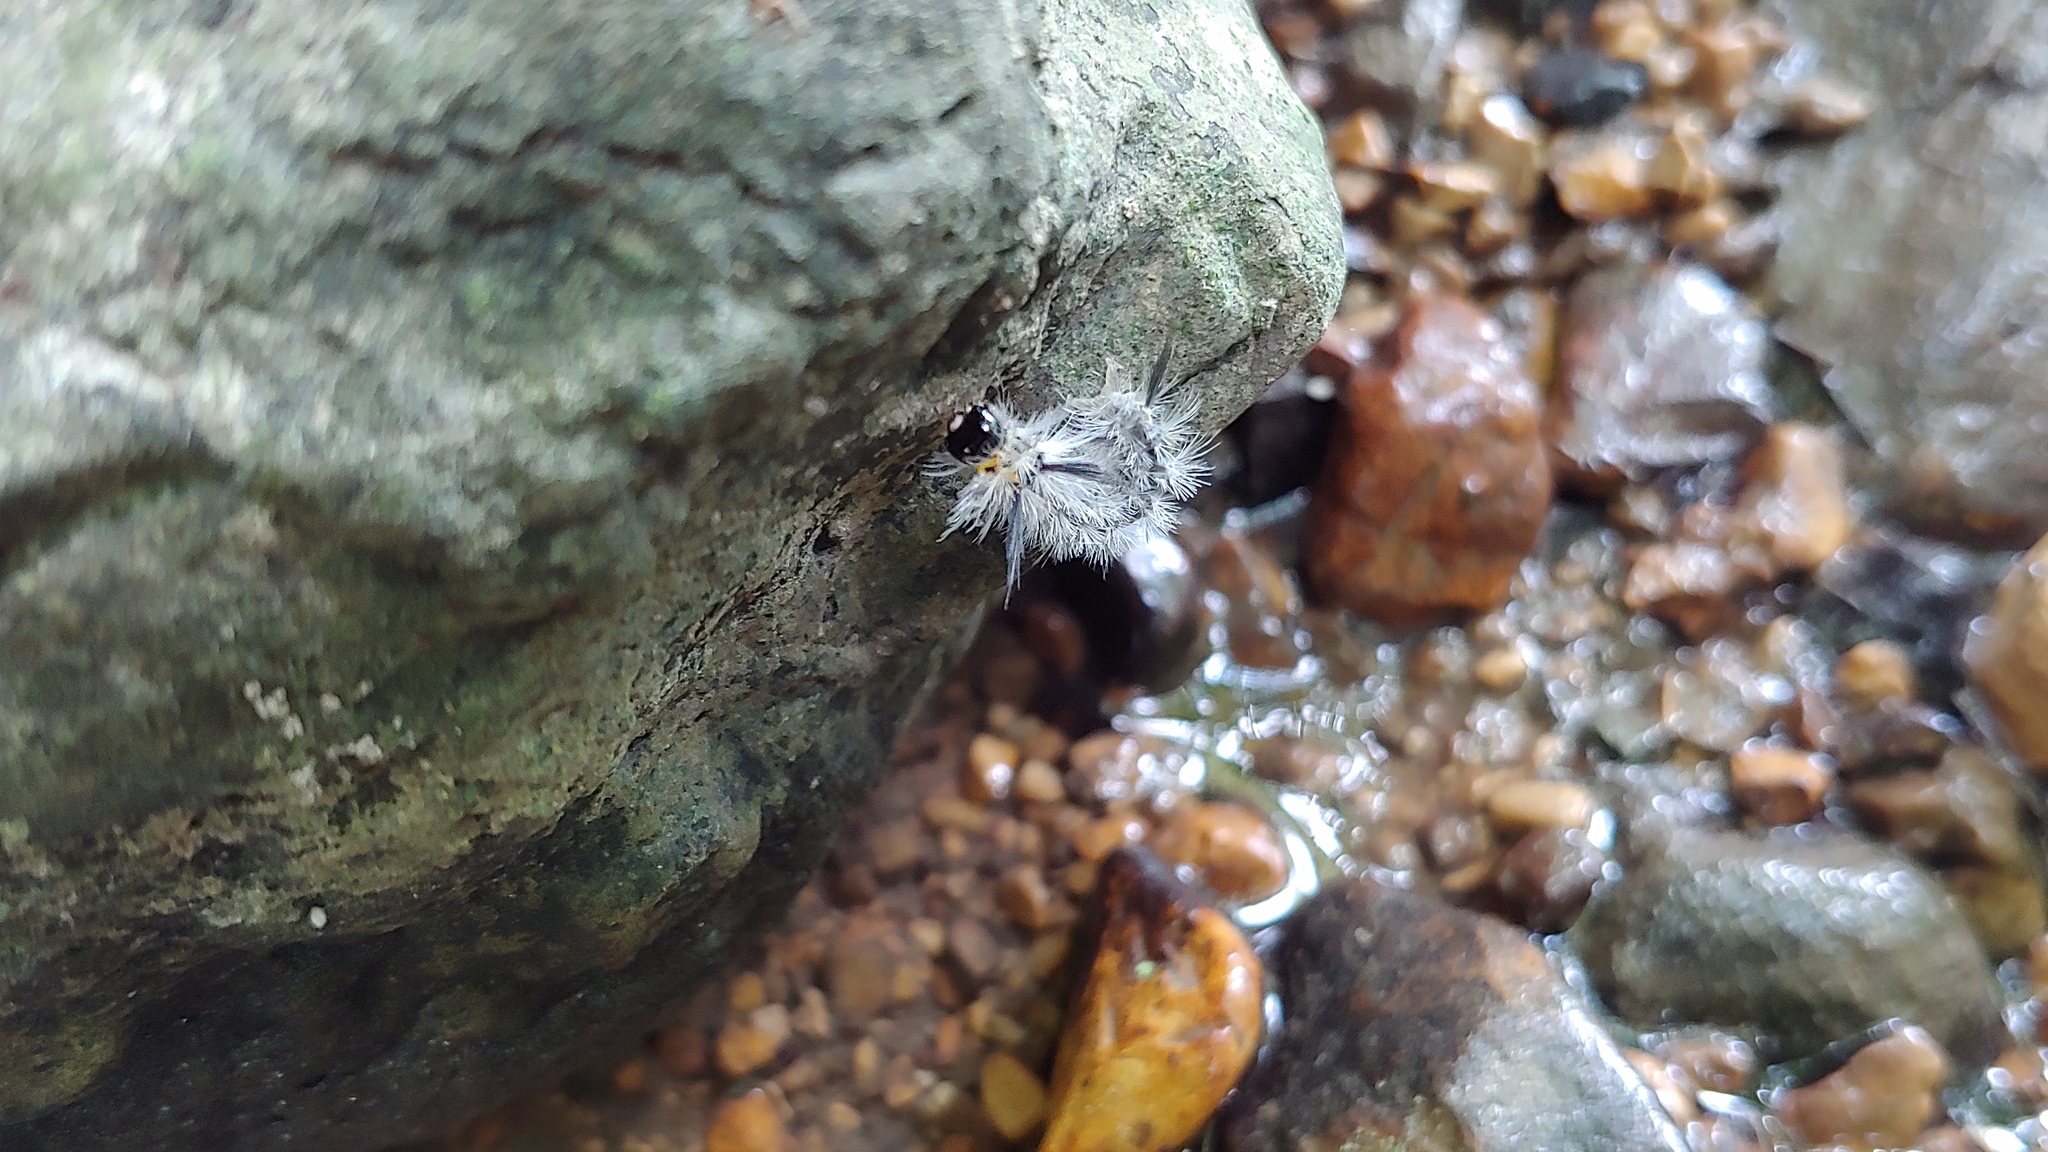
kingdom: Animalia
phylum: Arthropoda
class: Insecta
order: Lepidoptera
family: Erebidae
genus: Halysidota
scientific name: Halysidota tessellaris
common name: Banded tussock moth
